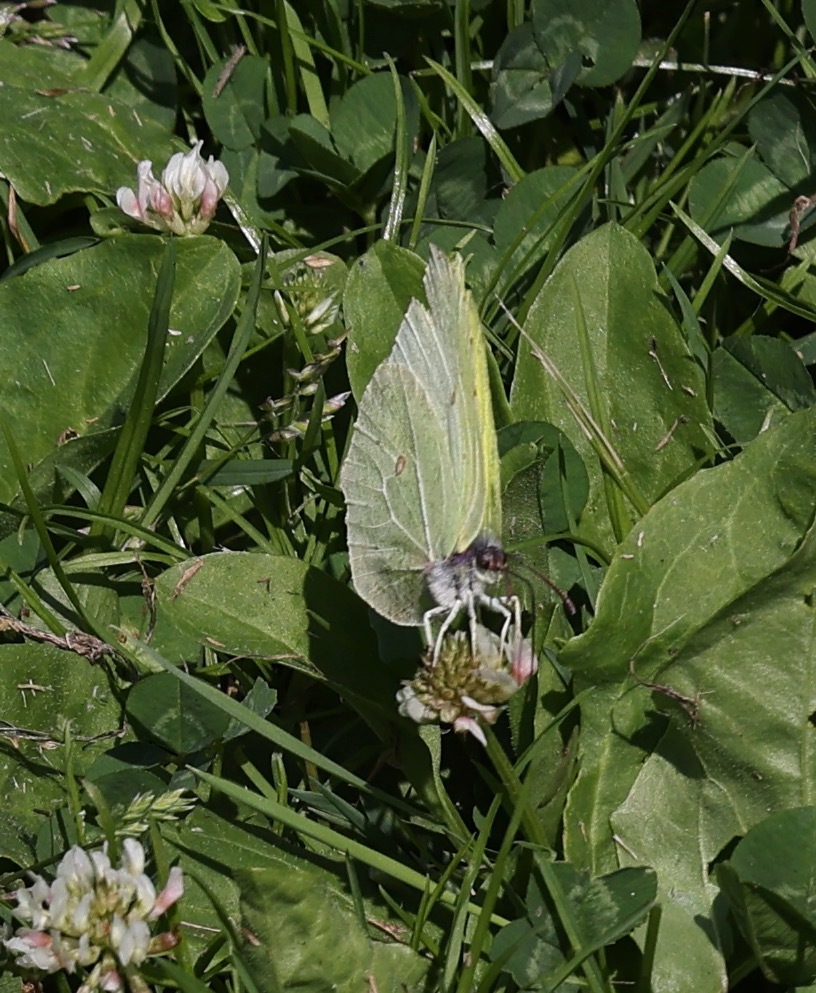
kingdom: Animalia
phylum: Arthropoda
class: Insecta
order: Lepidoptera
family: Pieridae
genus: Gonepteryx
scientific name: Gonepteryx rhamni
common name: Brimstone
